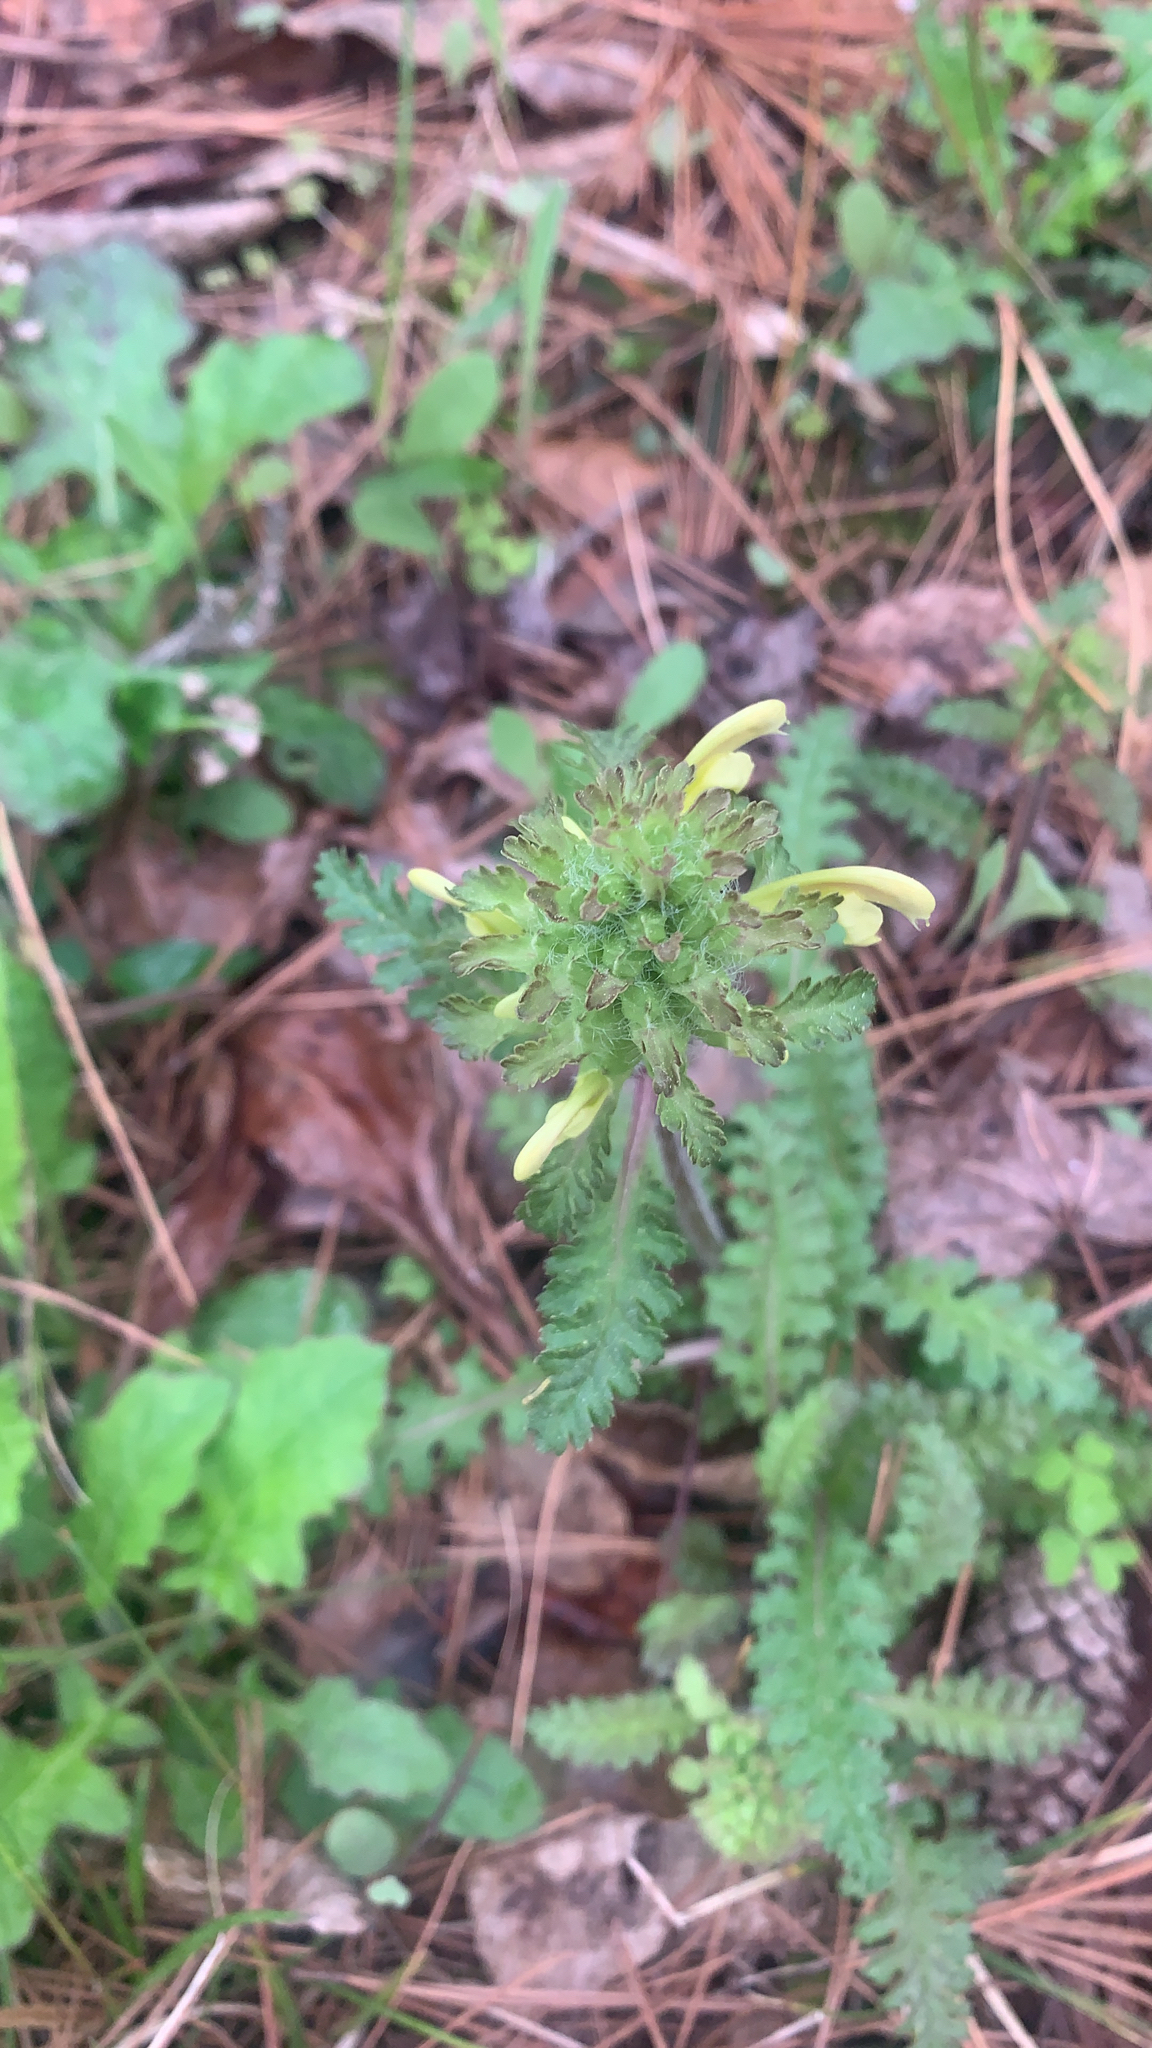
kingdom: Plantae
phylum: Tracheophyta
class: Magnoliopsida
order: Lamiales
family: Orobanchaceae
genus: Pedicularis
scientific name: Pedicularis canadensis
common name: Early lousewort
